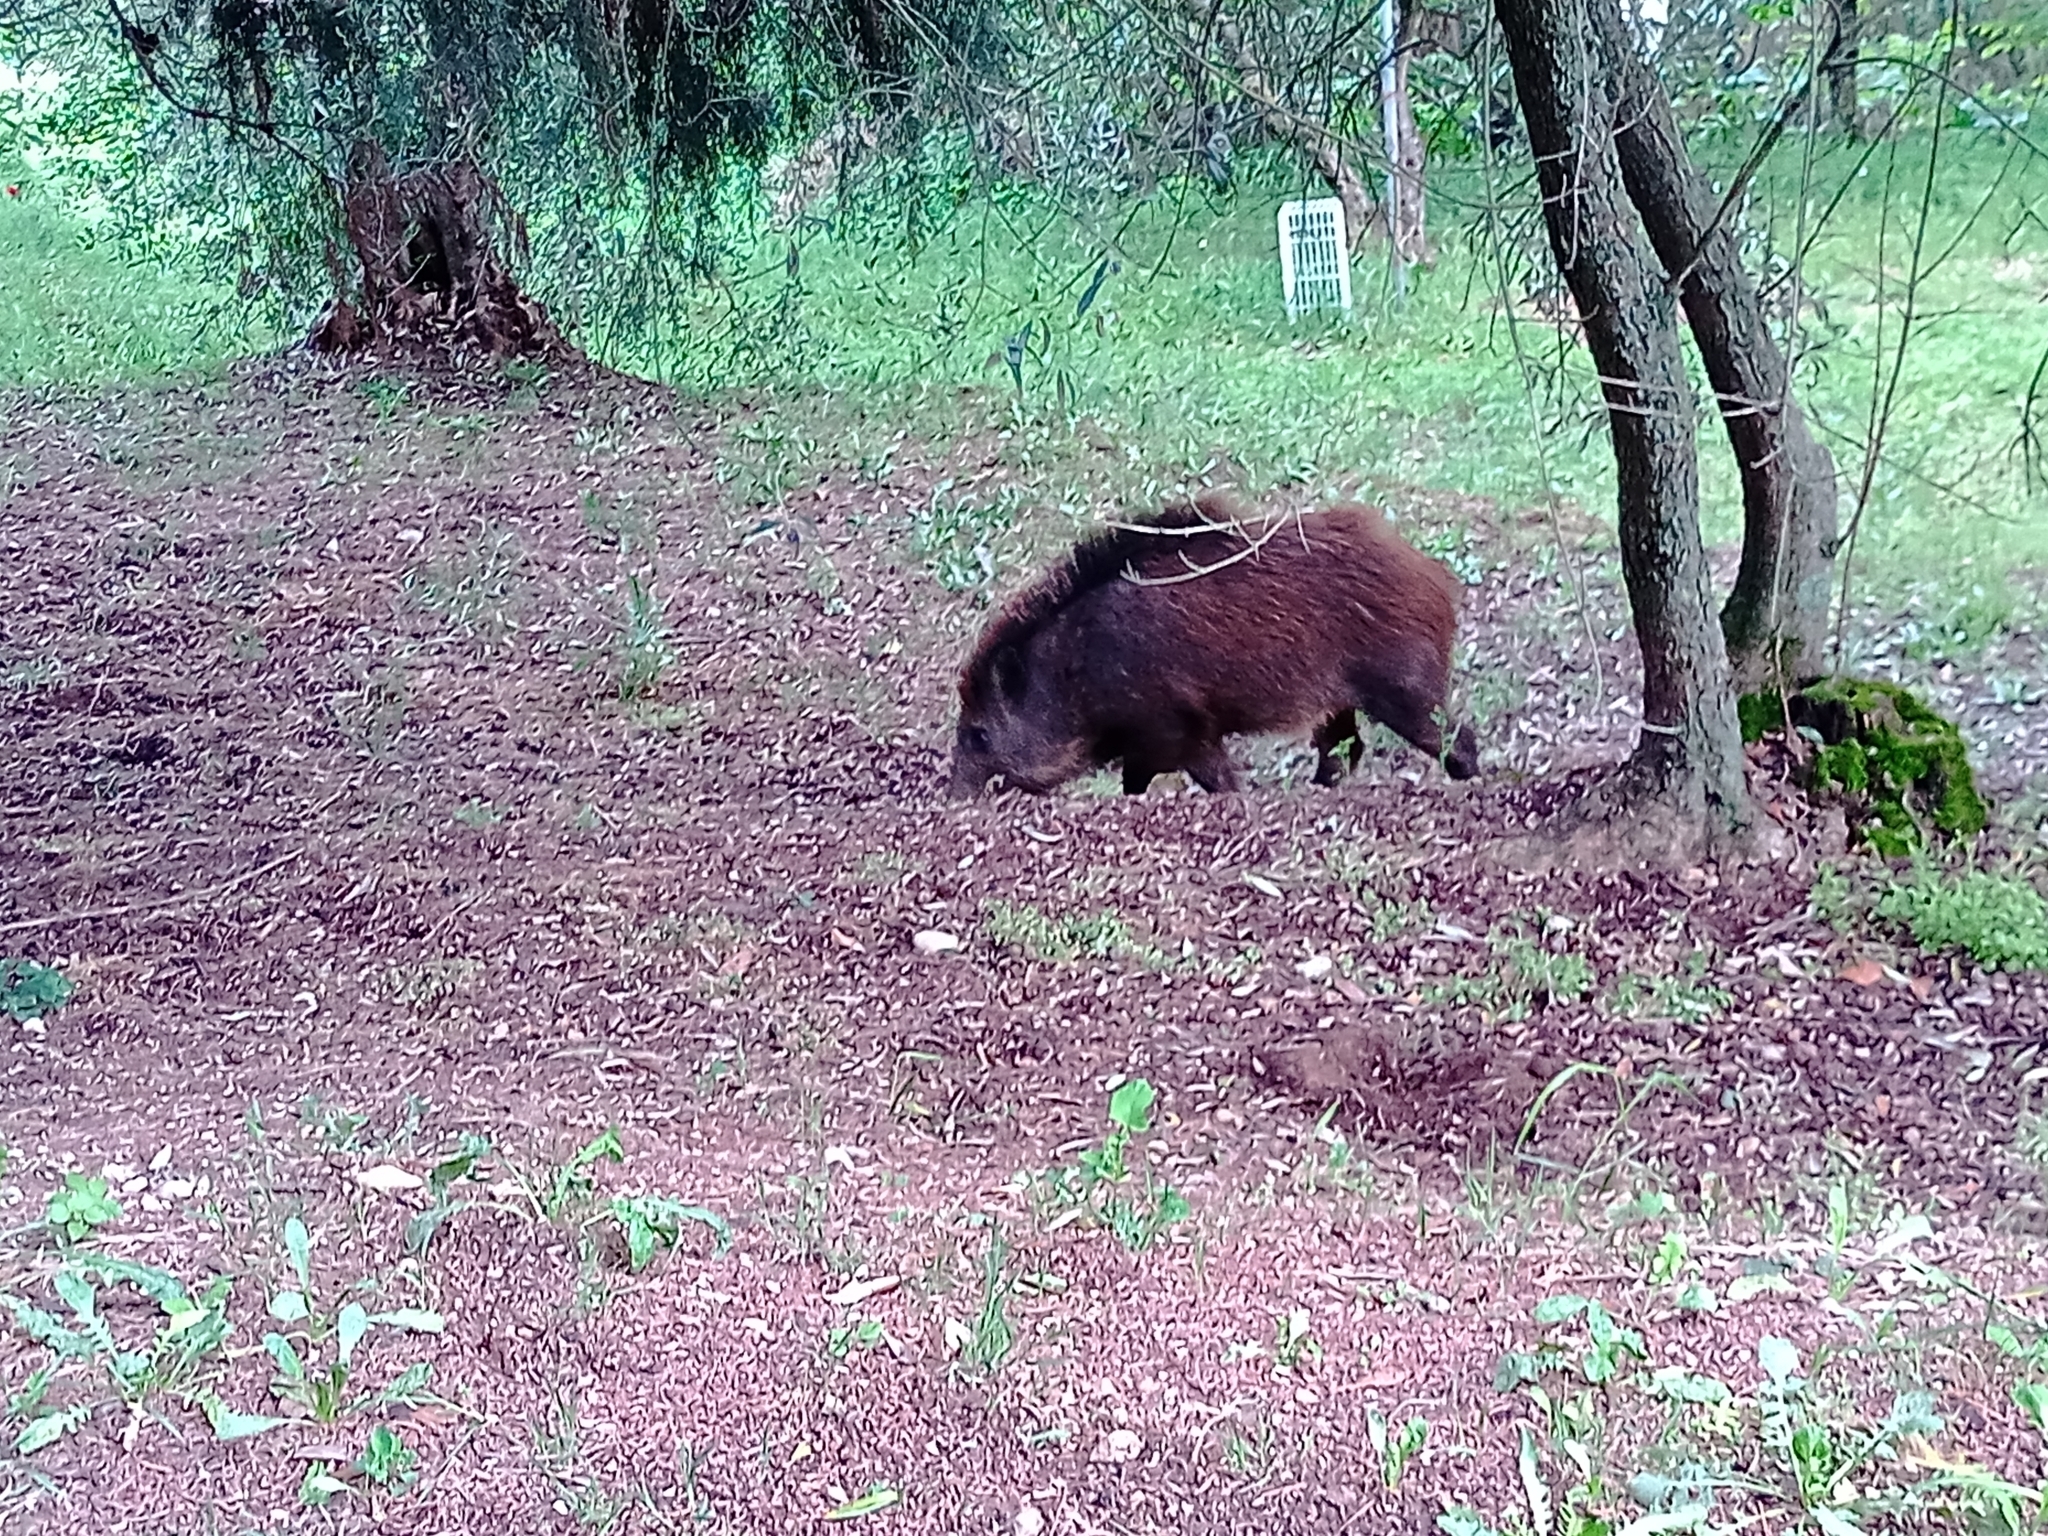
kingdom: Animalia
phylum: Chordata
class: Mammalia
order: Artiodactyla
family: Suidae
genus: Sus
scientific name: Sus scrofa
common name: Wild boar
